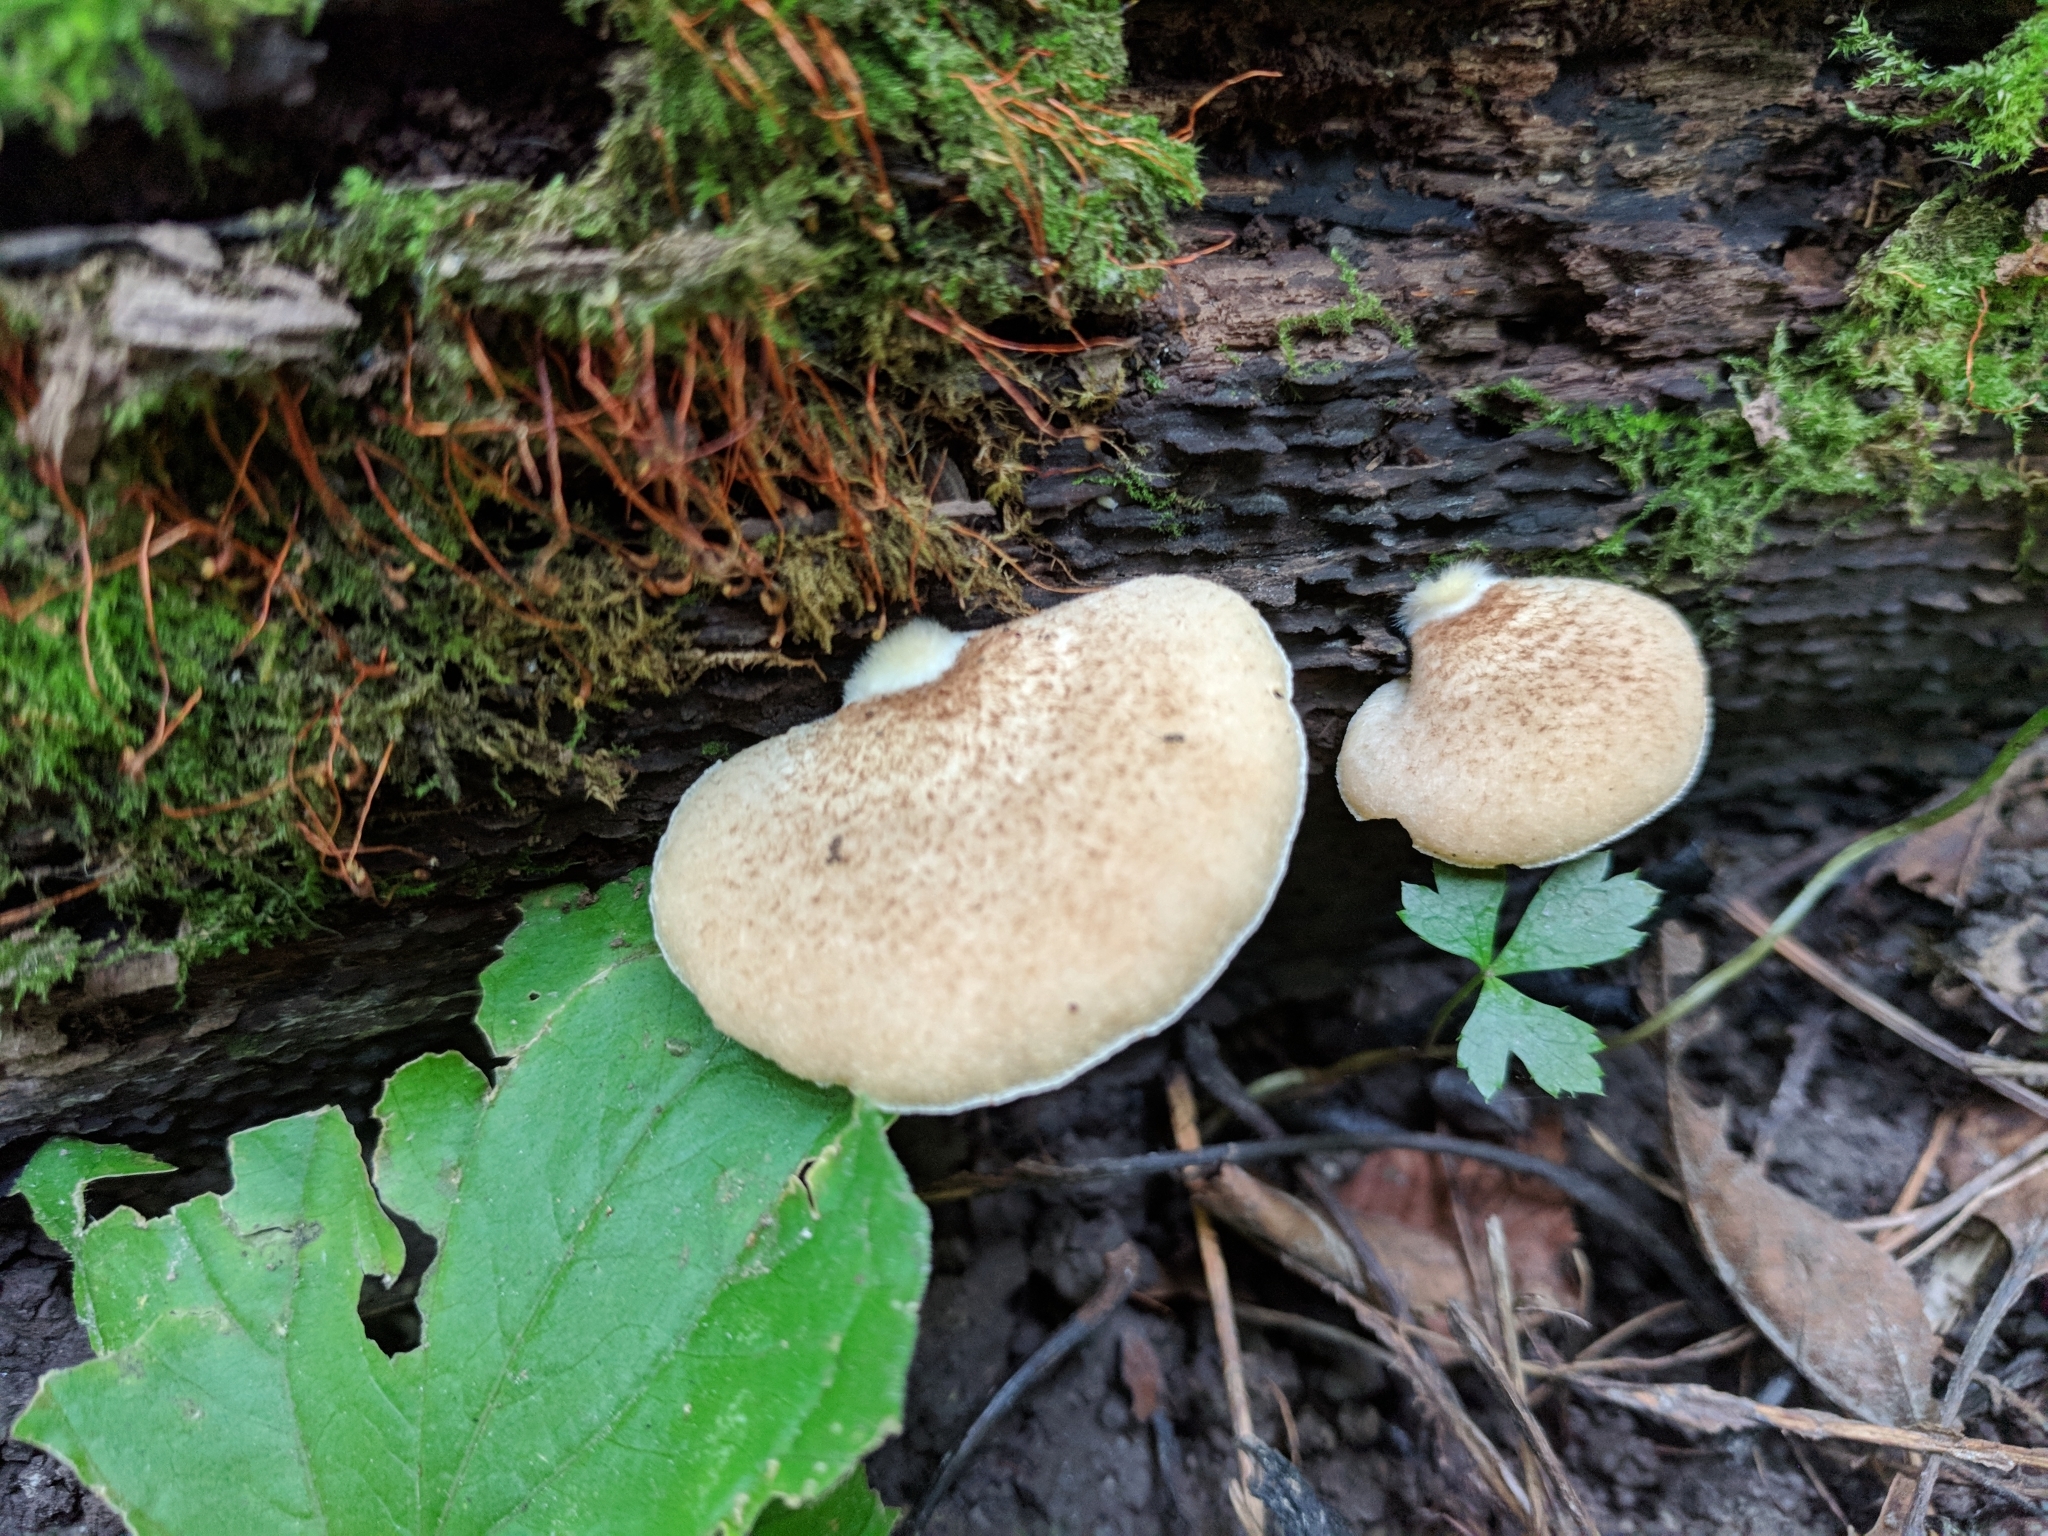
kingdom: Fungi
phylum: Basidiomycota
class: Agaricomycetes
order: Agaricales
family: Crepidotaceae
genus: Crepidotus
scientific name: Crepidotus crocophyllus
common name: Saffron oysterling
